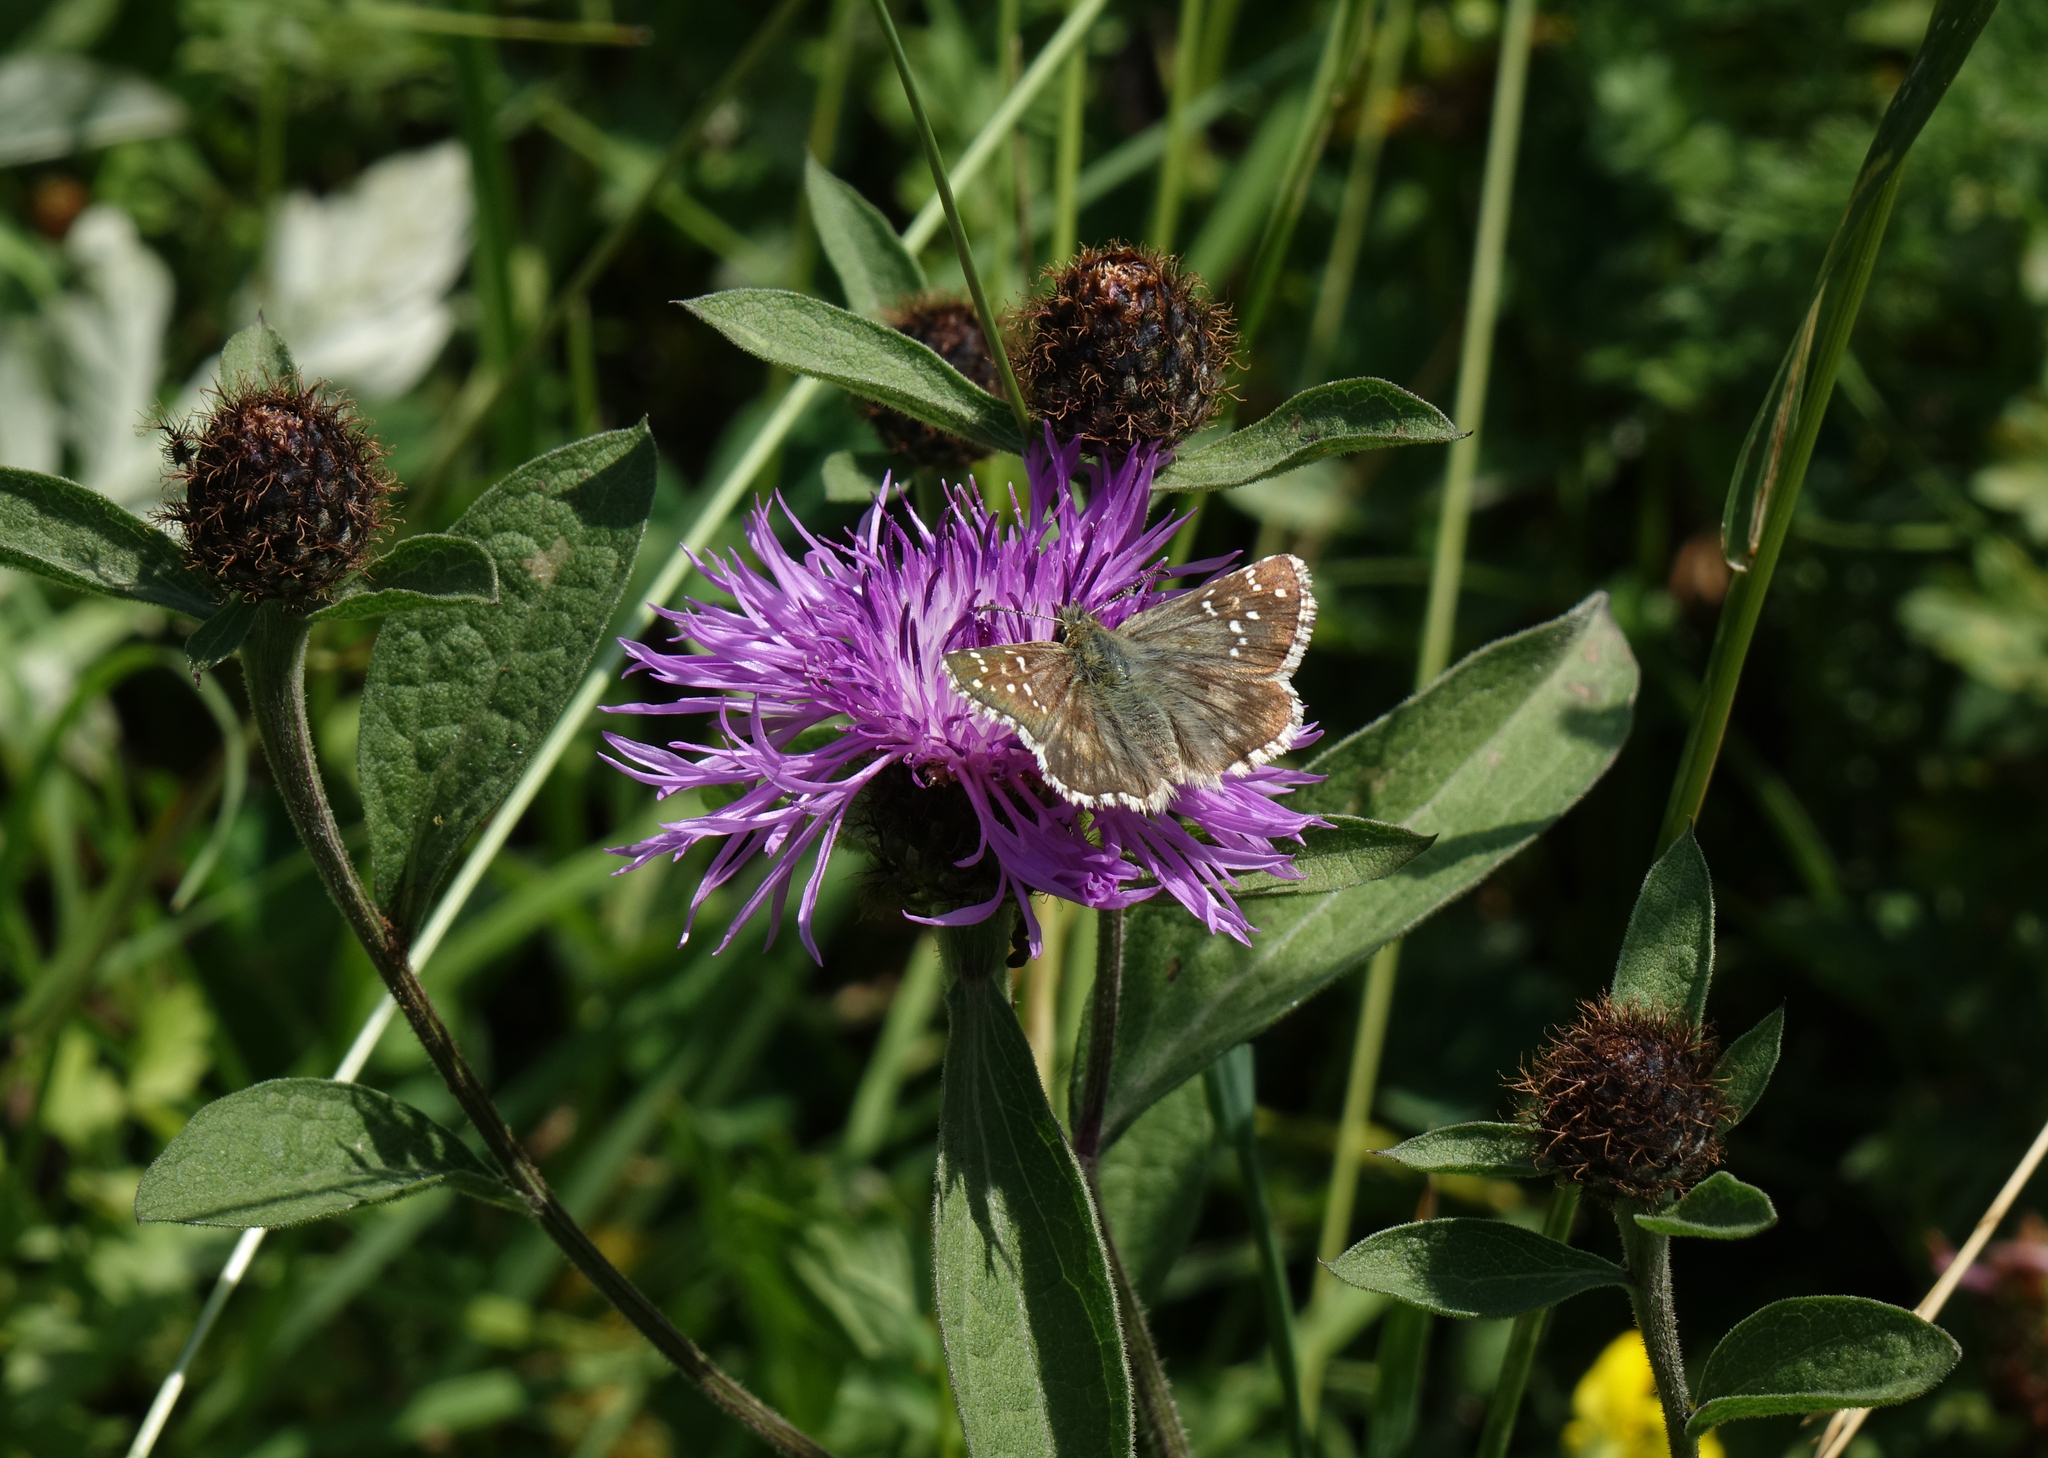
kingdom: Plantae
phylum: Tracheophyta
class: Magnoliopsida
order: Asterales
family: Asteraceae
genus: Centaurea
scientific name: Centaurea phrygia
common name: Wig knapweed
